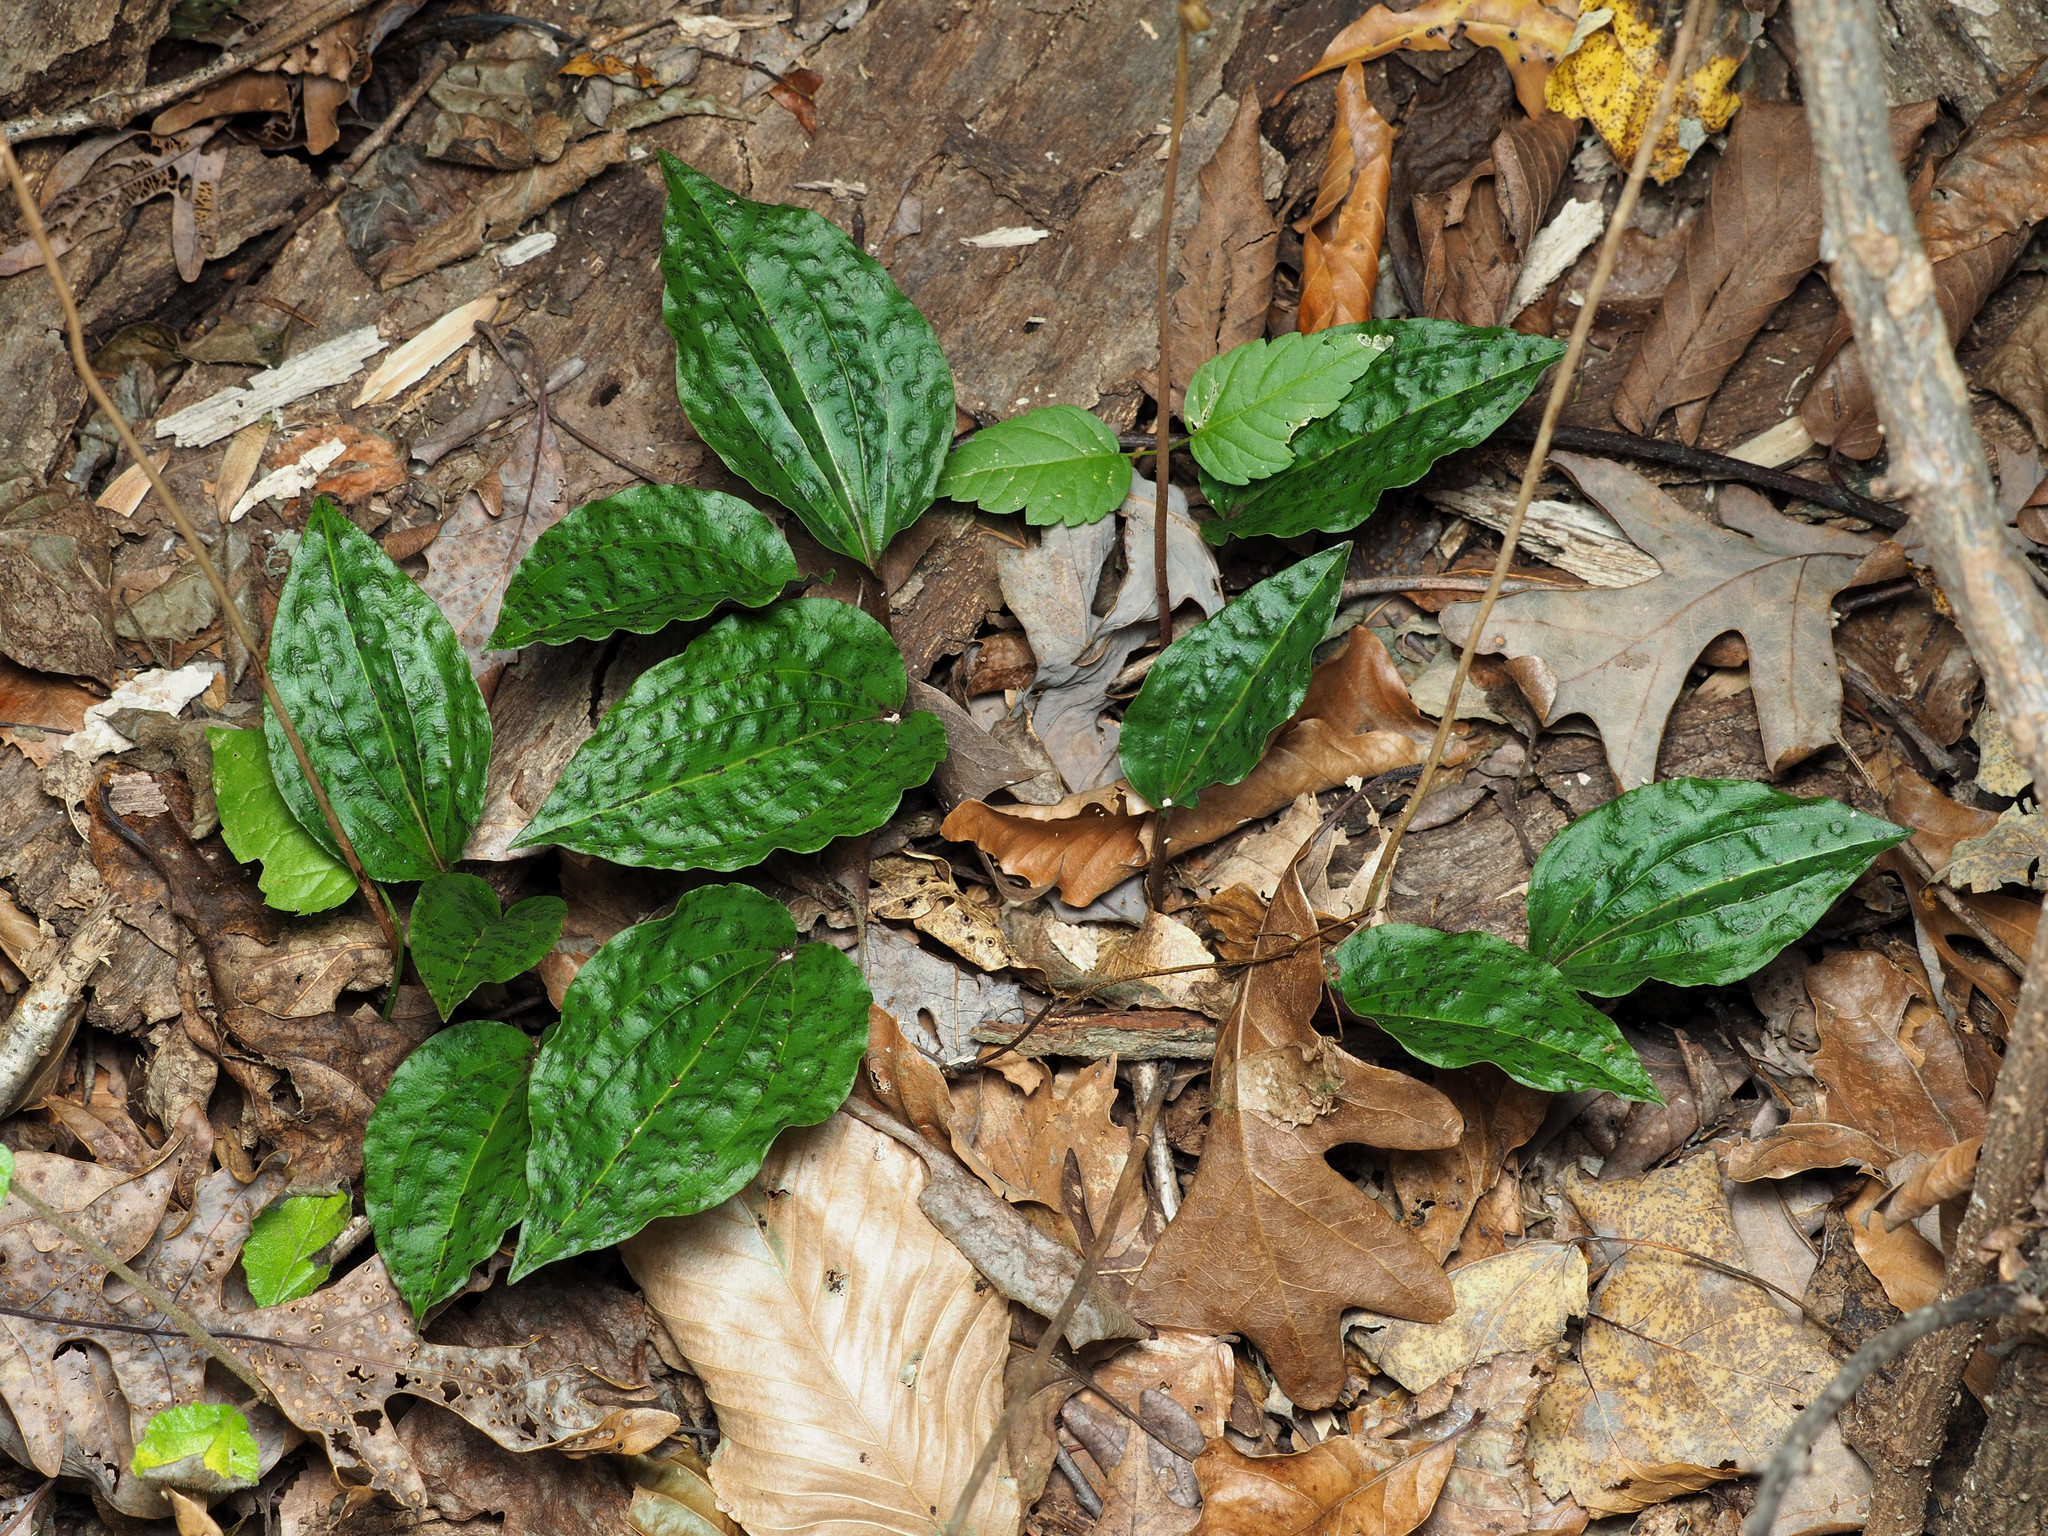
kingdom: Plantae
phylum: Tracheophyta
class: Liliopsida
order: Asparagales
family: Orchidaceae
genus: Tipularia
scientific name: Tipularia discolor
